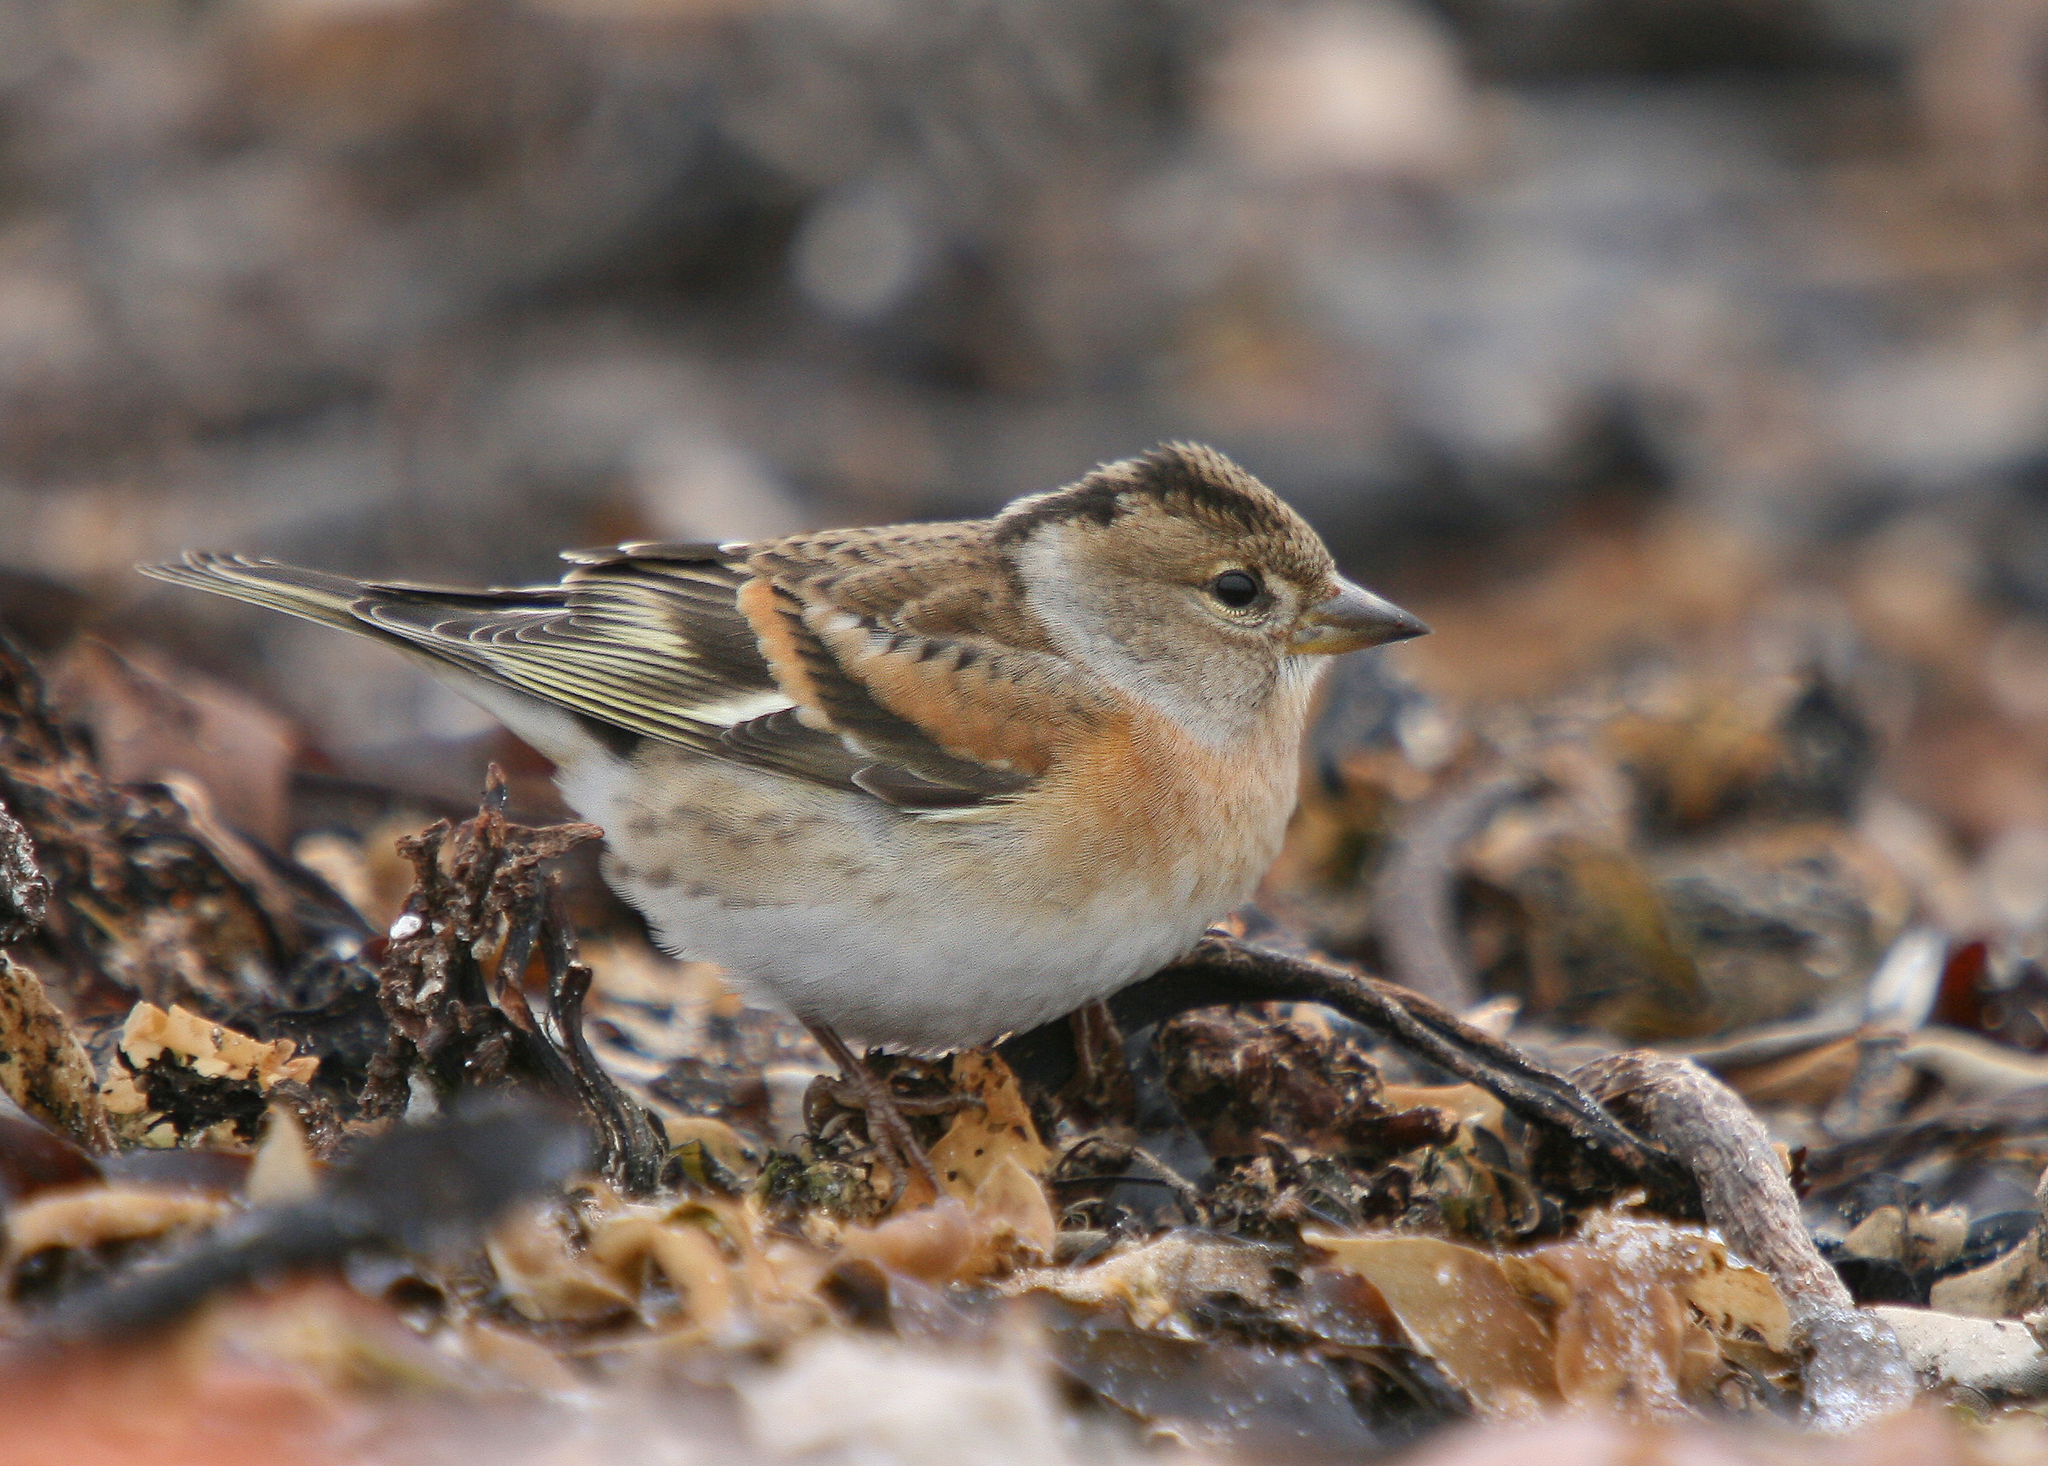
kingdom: Animalia
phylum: Chordata
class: Aves
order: Passeriformes
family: Fringillidae
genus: Fringilla
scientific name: Fringilla montifringilla
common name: Brambling
